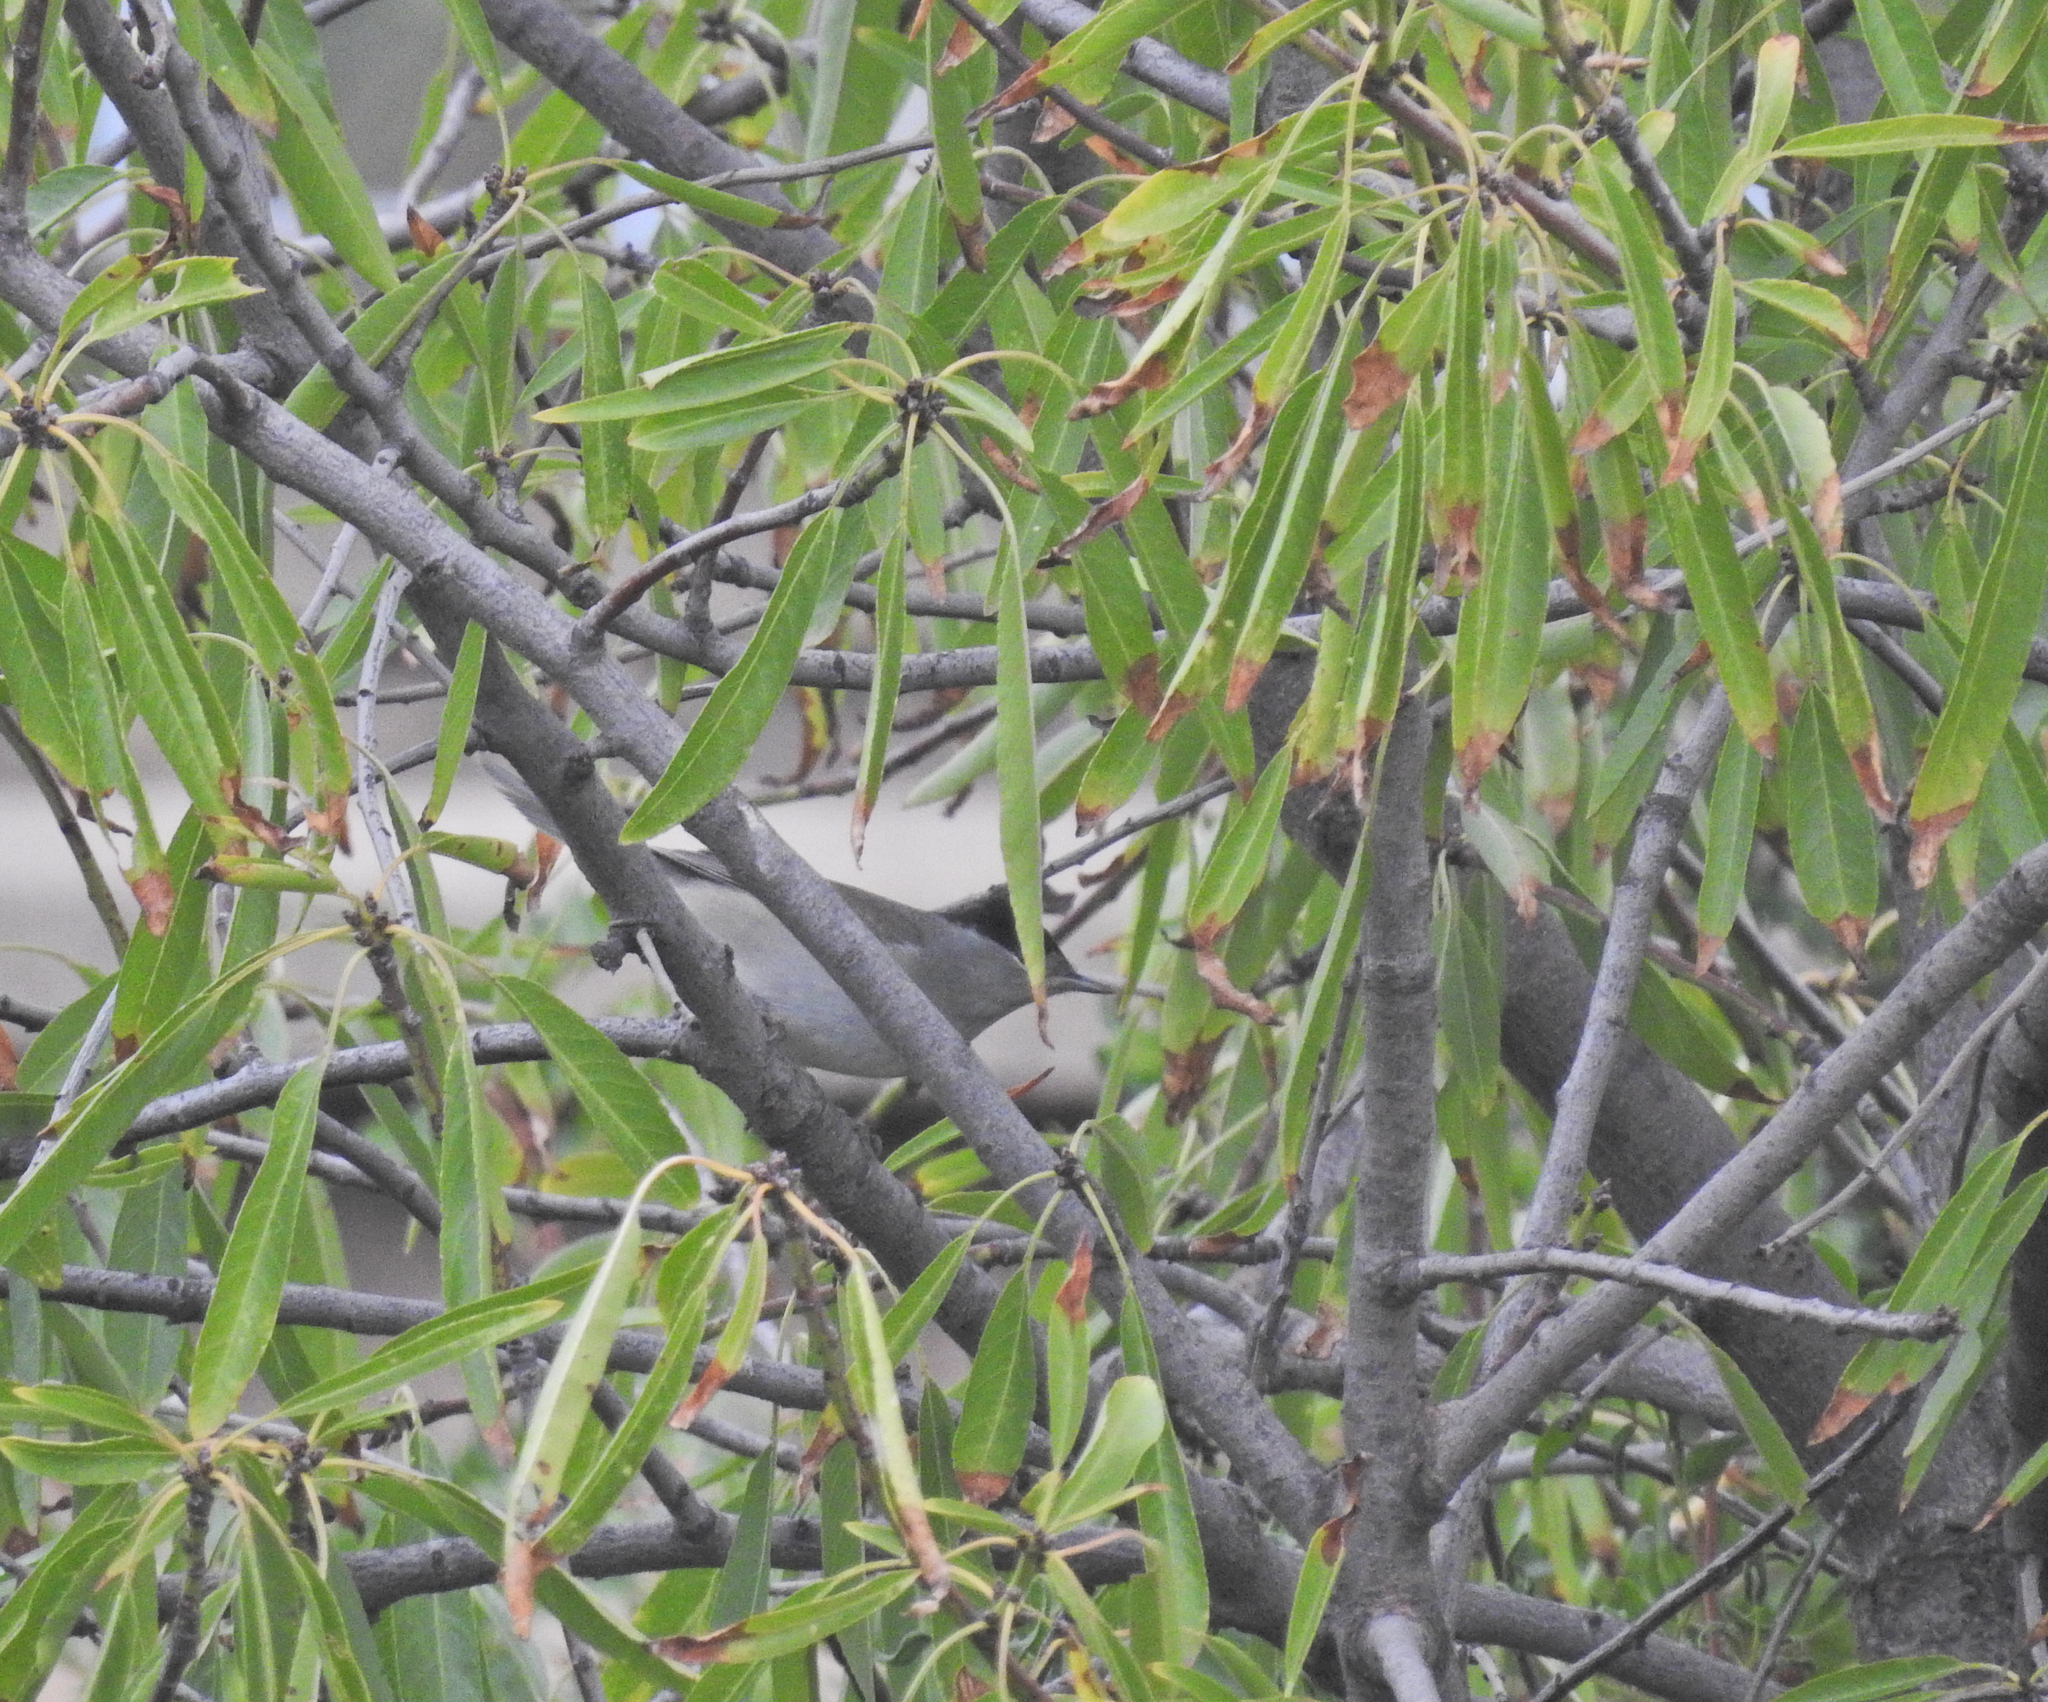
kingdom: Animalia
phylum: Chordata
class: Aves
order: Passeriformes
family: Sylviidae
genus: Sylvia
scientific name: Sylvia atricapilla
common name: Eurasian blackcap
